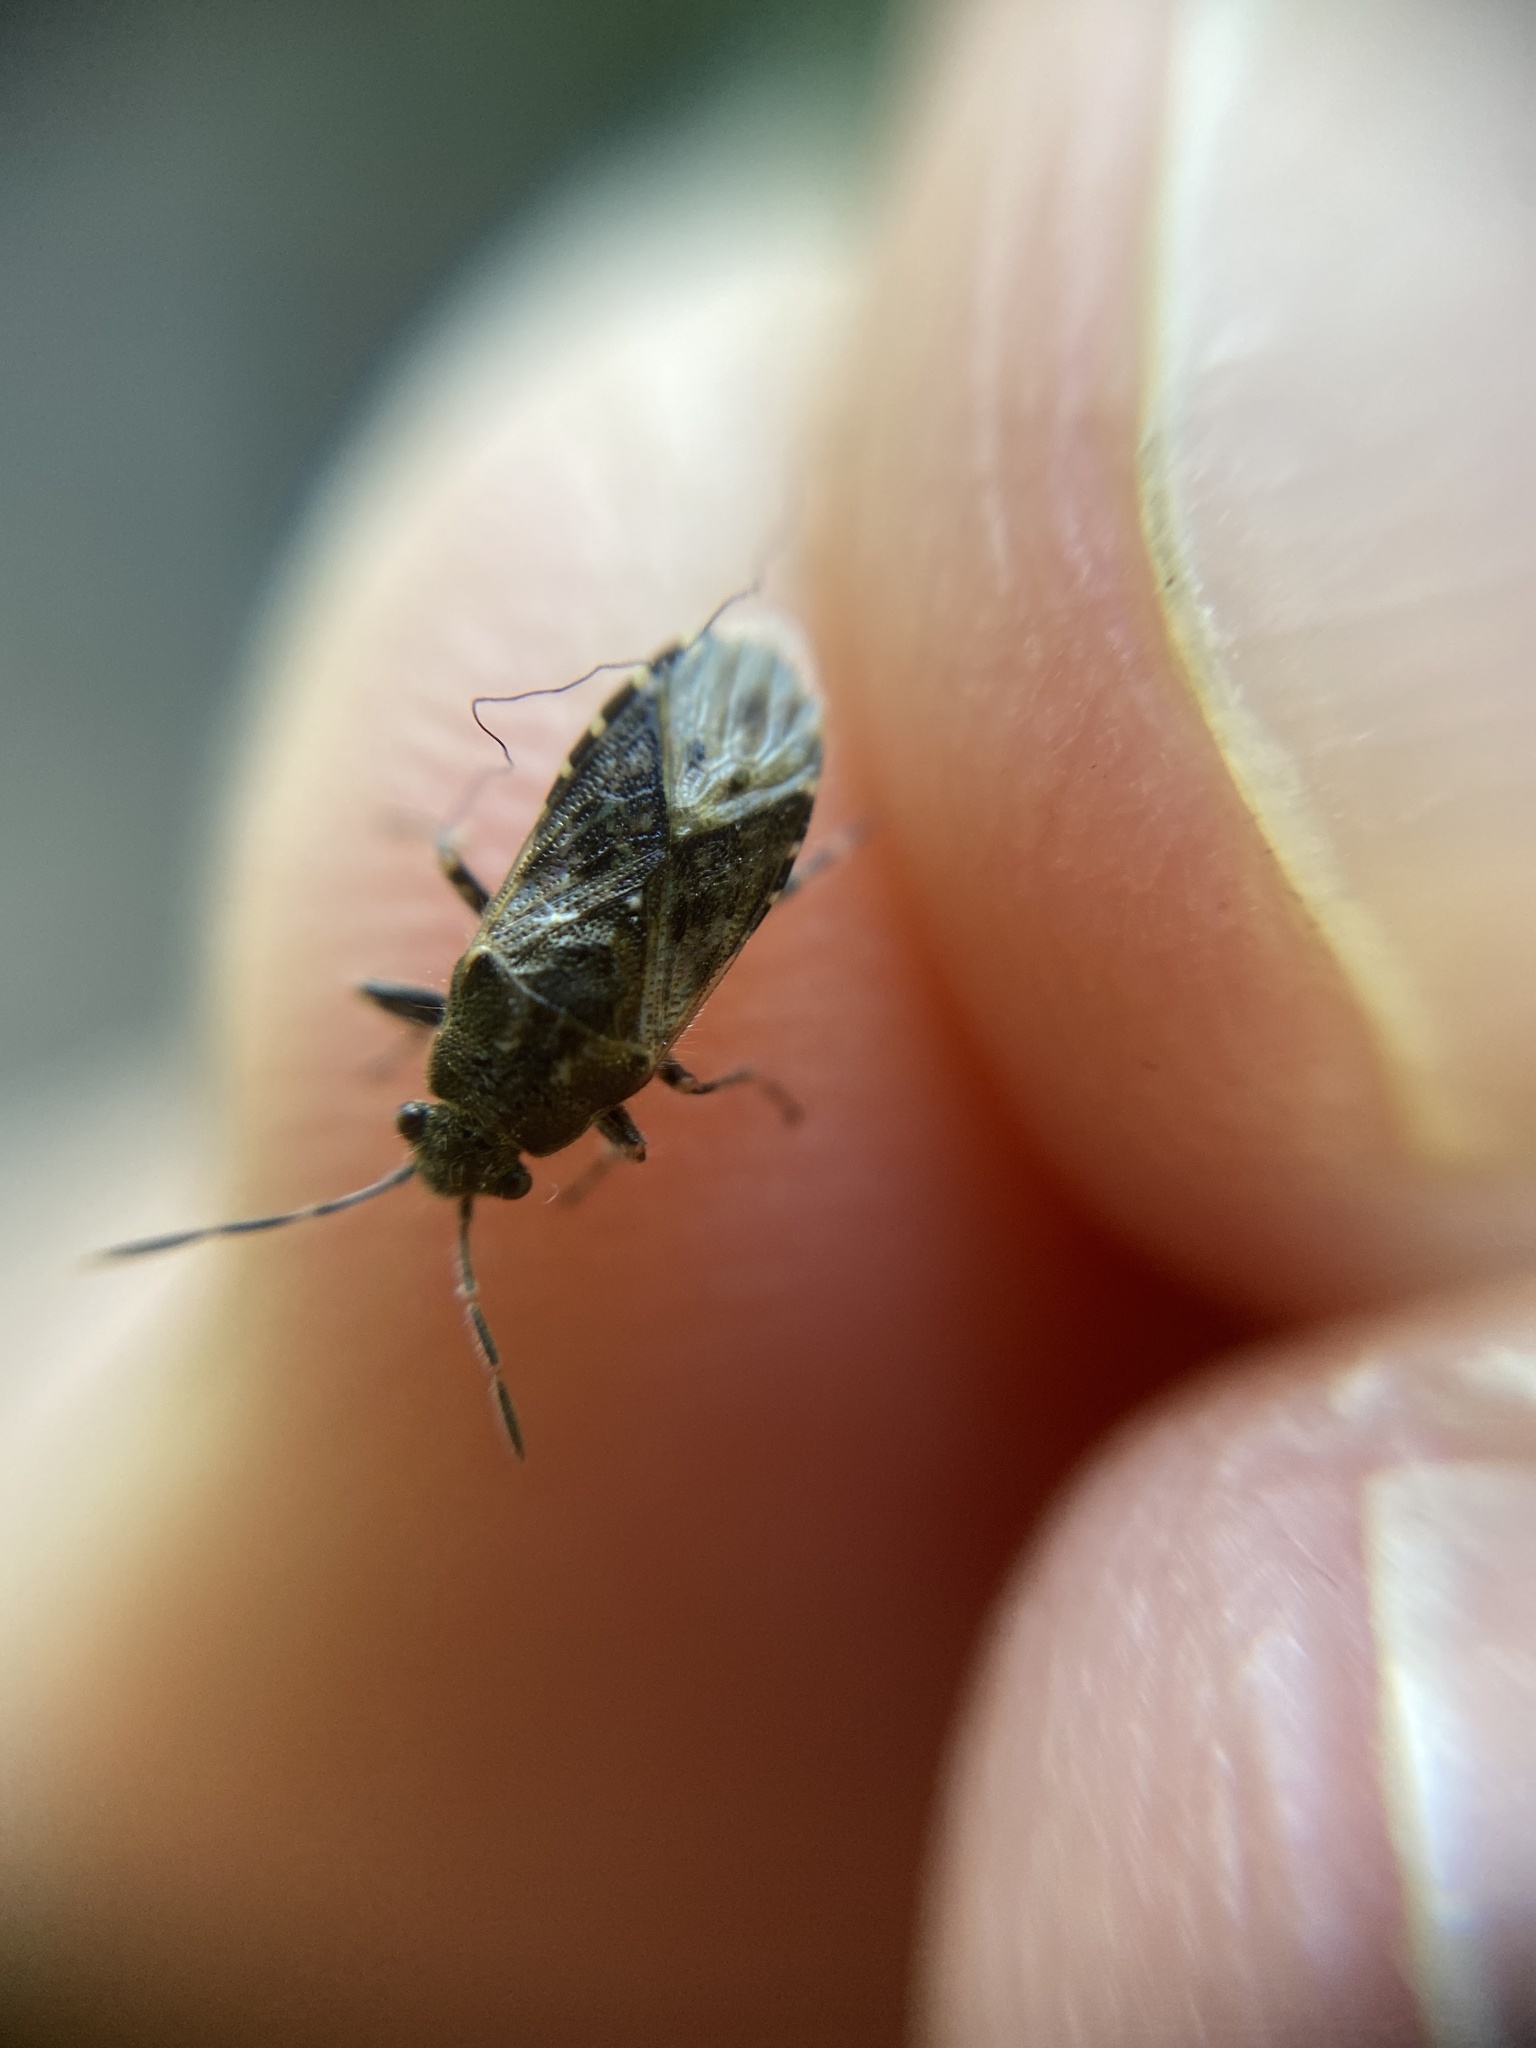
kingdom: Animalia
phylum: Arthropoda
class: Insecta
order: Hemiptera
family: Heterogastridae
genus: Heterogaster
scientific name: Heterogaster urticae
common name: Seed bug
